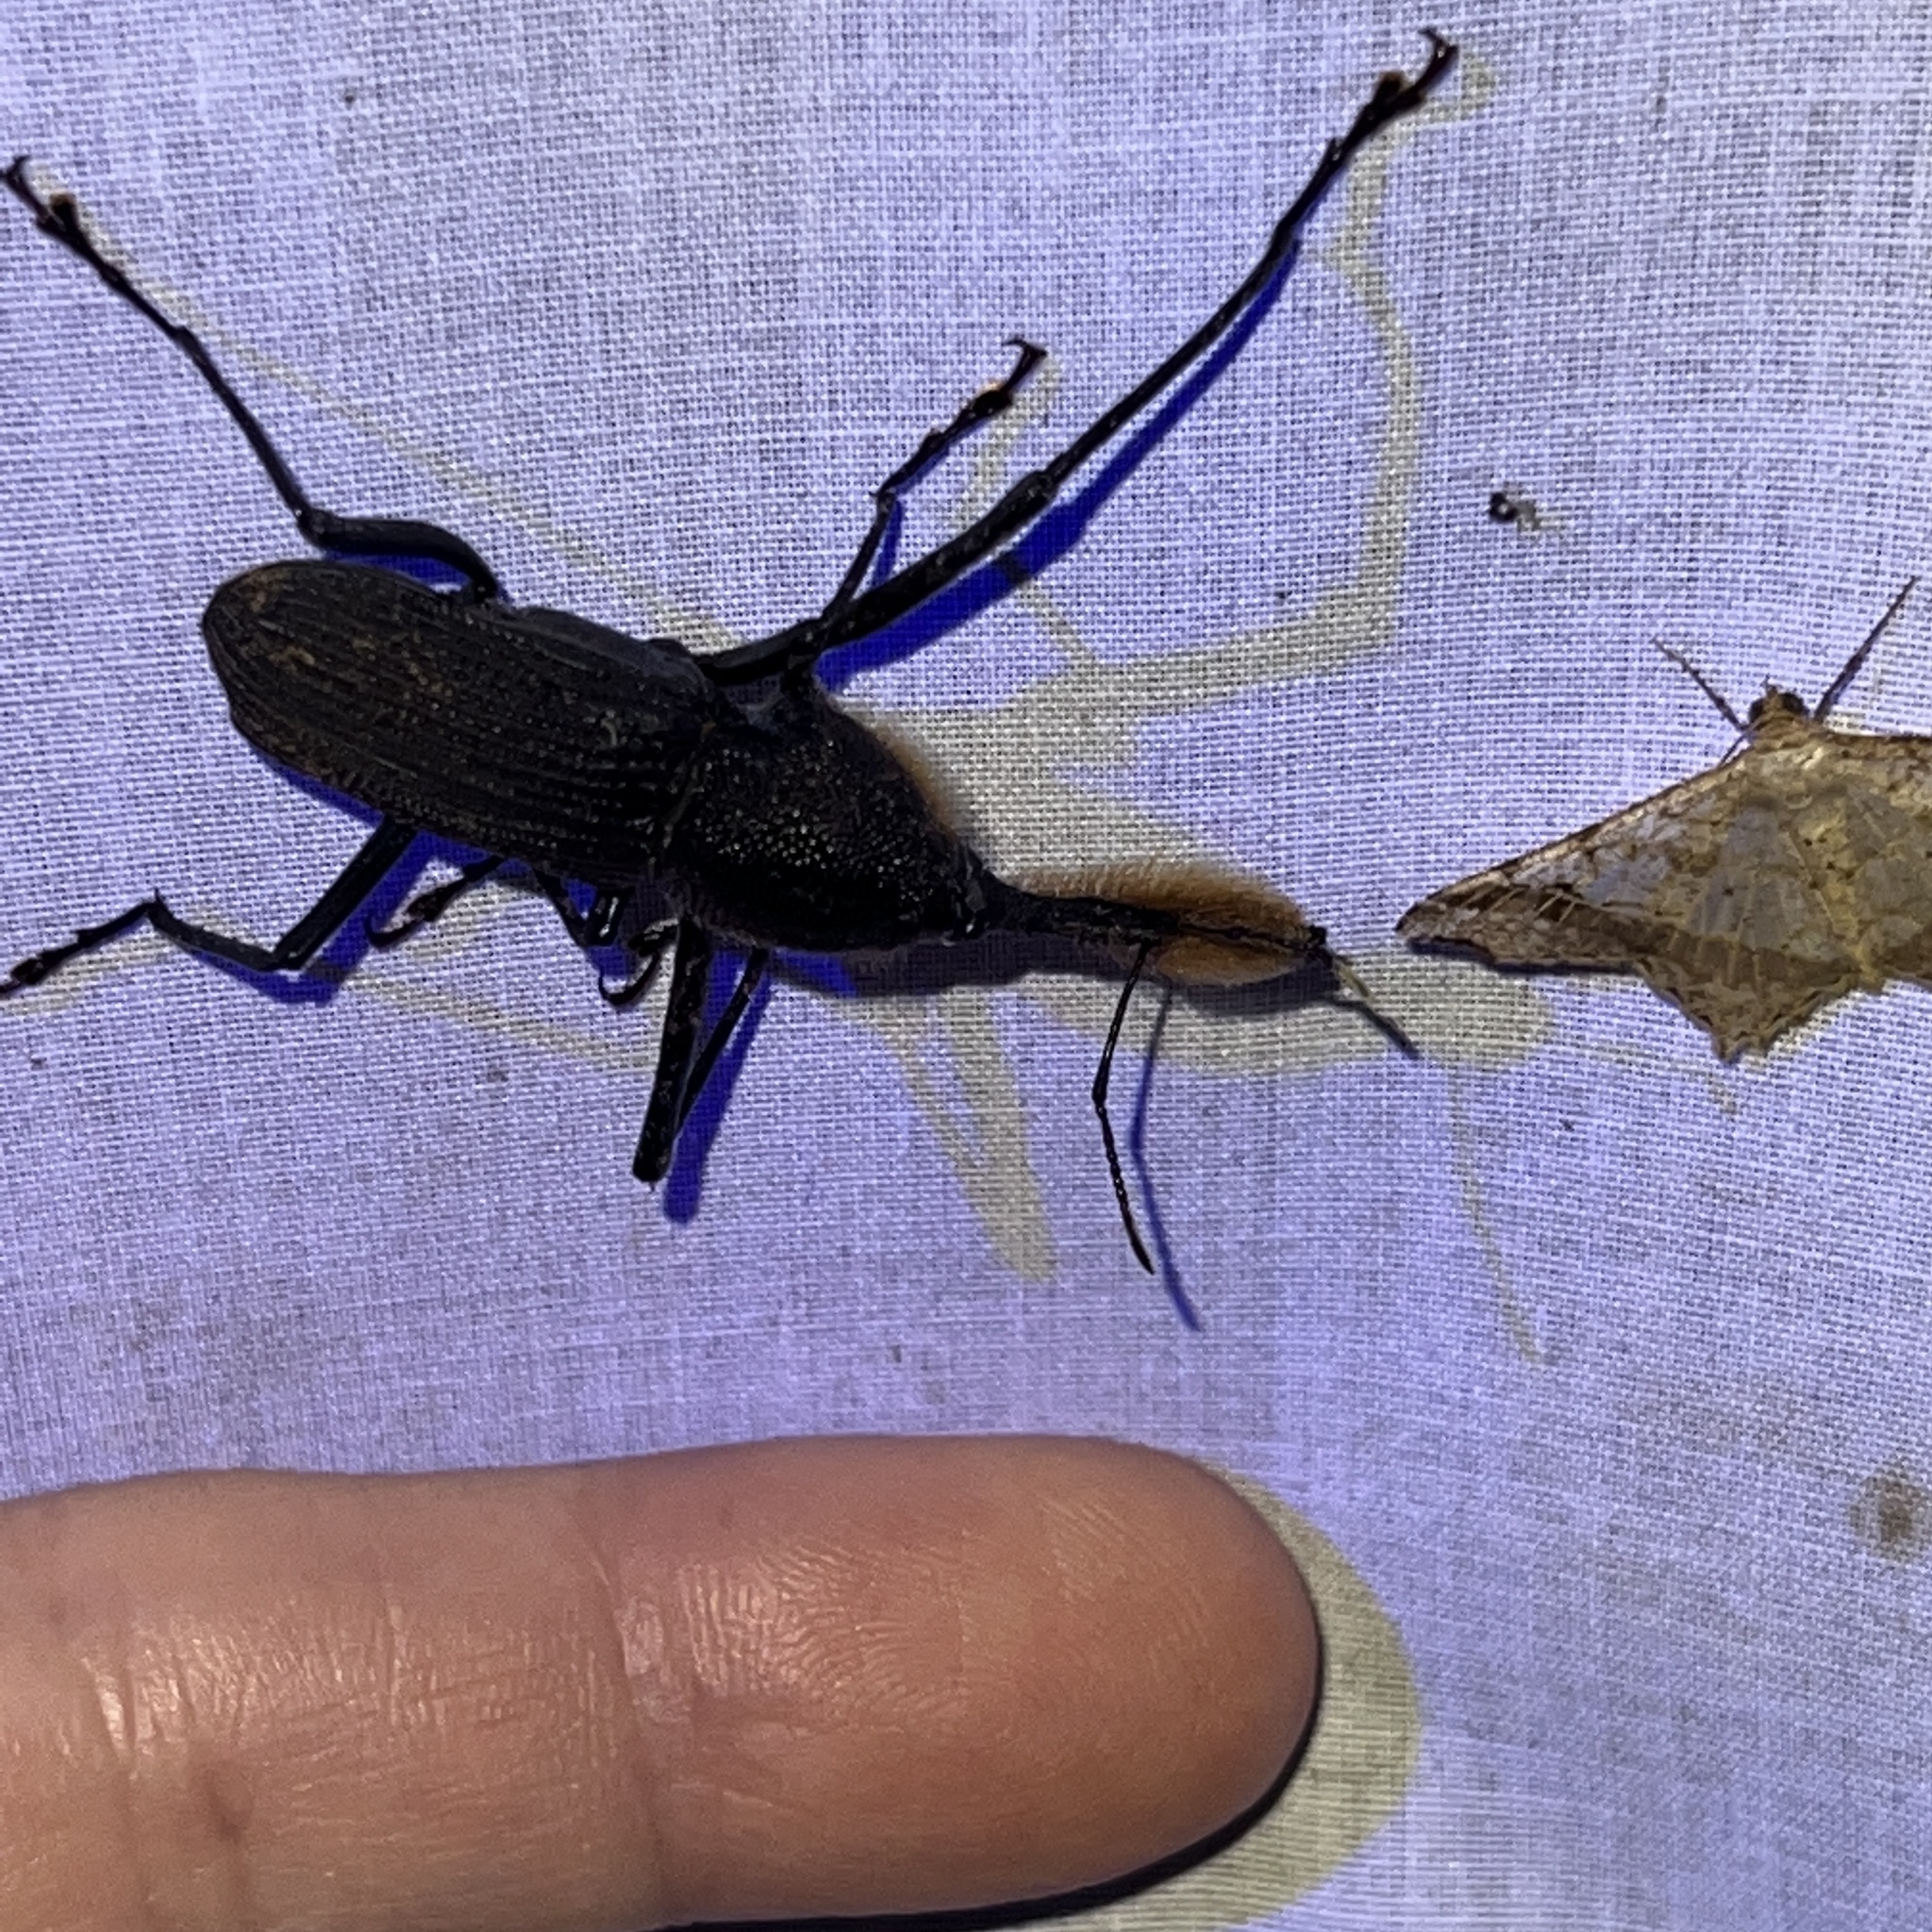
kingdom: Animalia
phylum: Arthropoda
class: Insecta
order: Coleoptera
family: Dryophthoridae
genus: Rhinostomus
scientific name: Rhinostomus barbirostris
